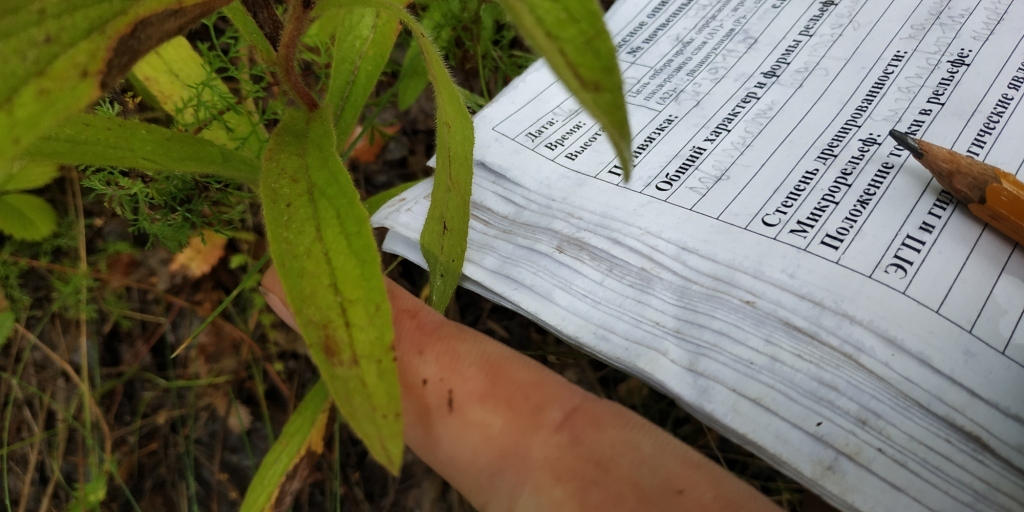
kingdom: Plantae
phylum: Tracheophyta
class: Magnoliopsida
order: Asterales
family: Asteraceae
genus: Pentanema
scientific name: Pentanema hirtum
